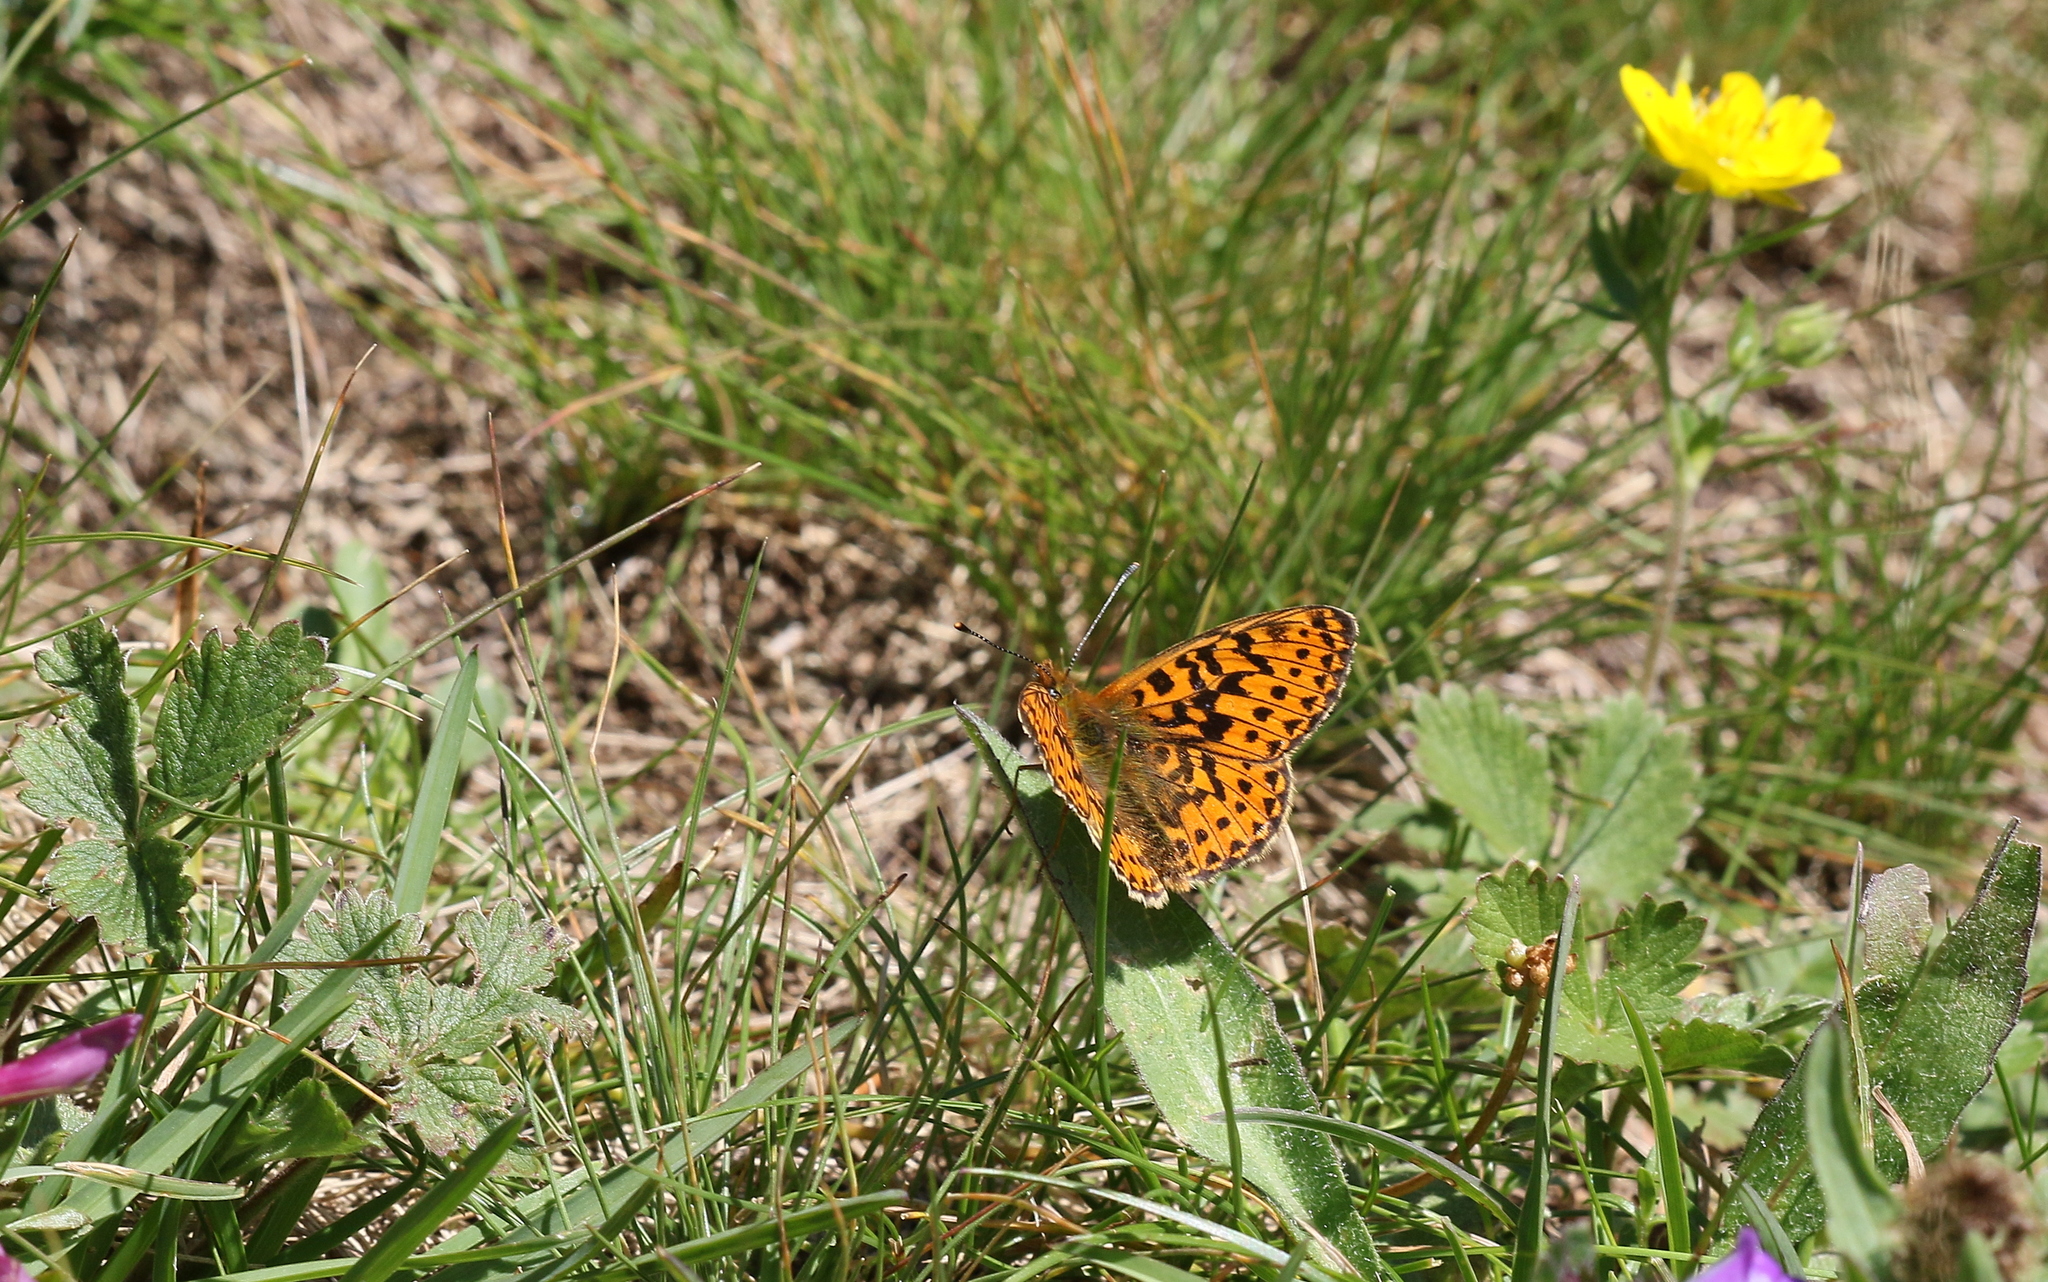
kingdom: Animalia
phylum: Arthropoda
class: Insecta
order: Lepidoptera
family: Nymphalidae
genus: Clossiana
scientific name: Clossiana euphrosyne
